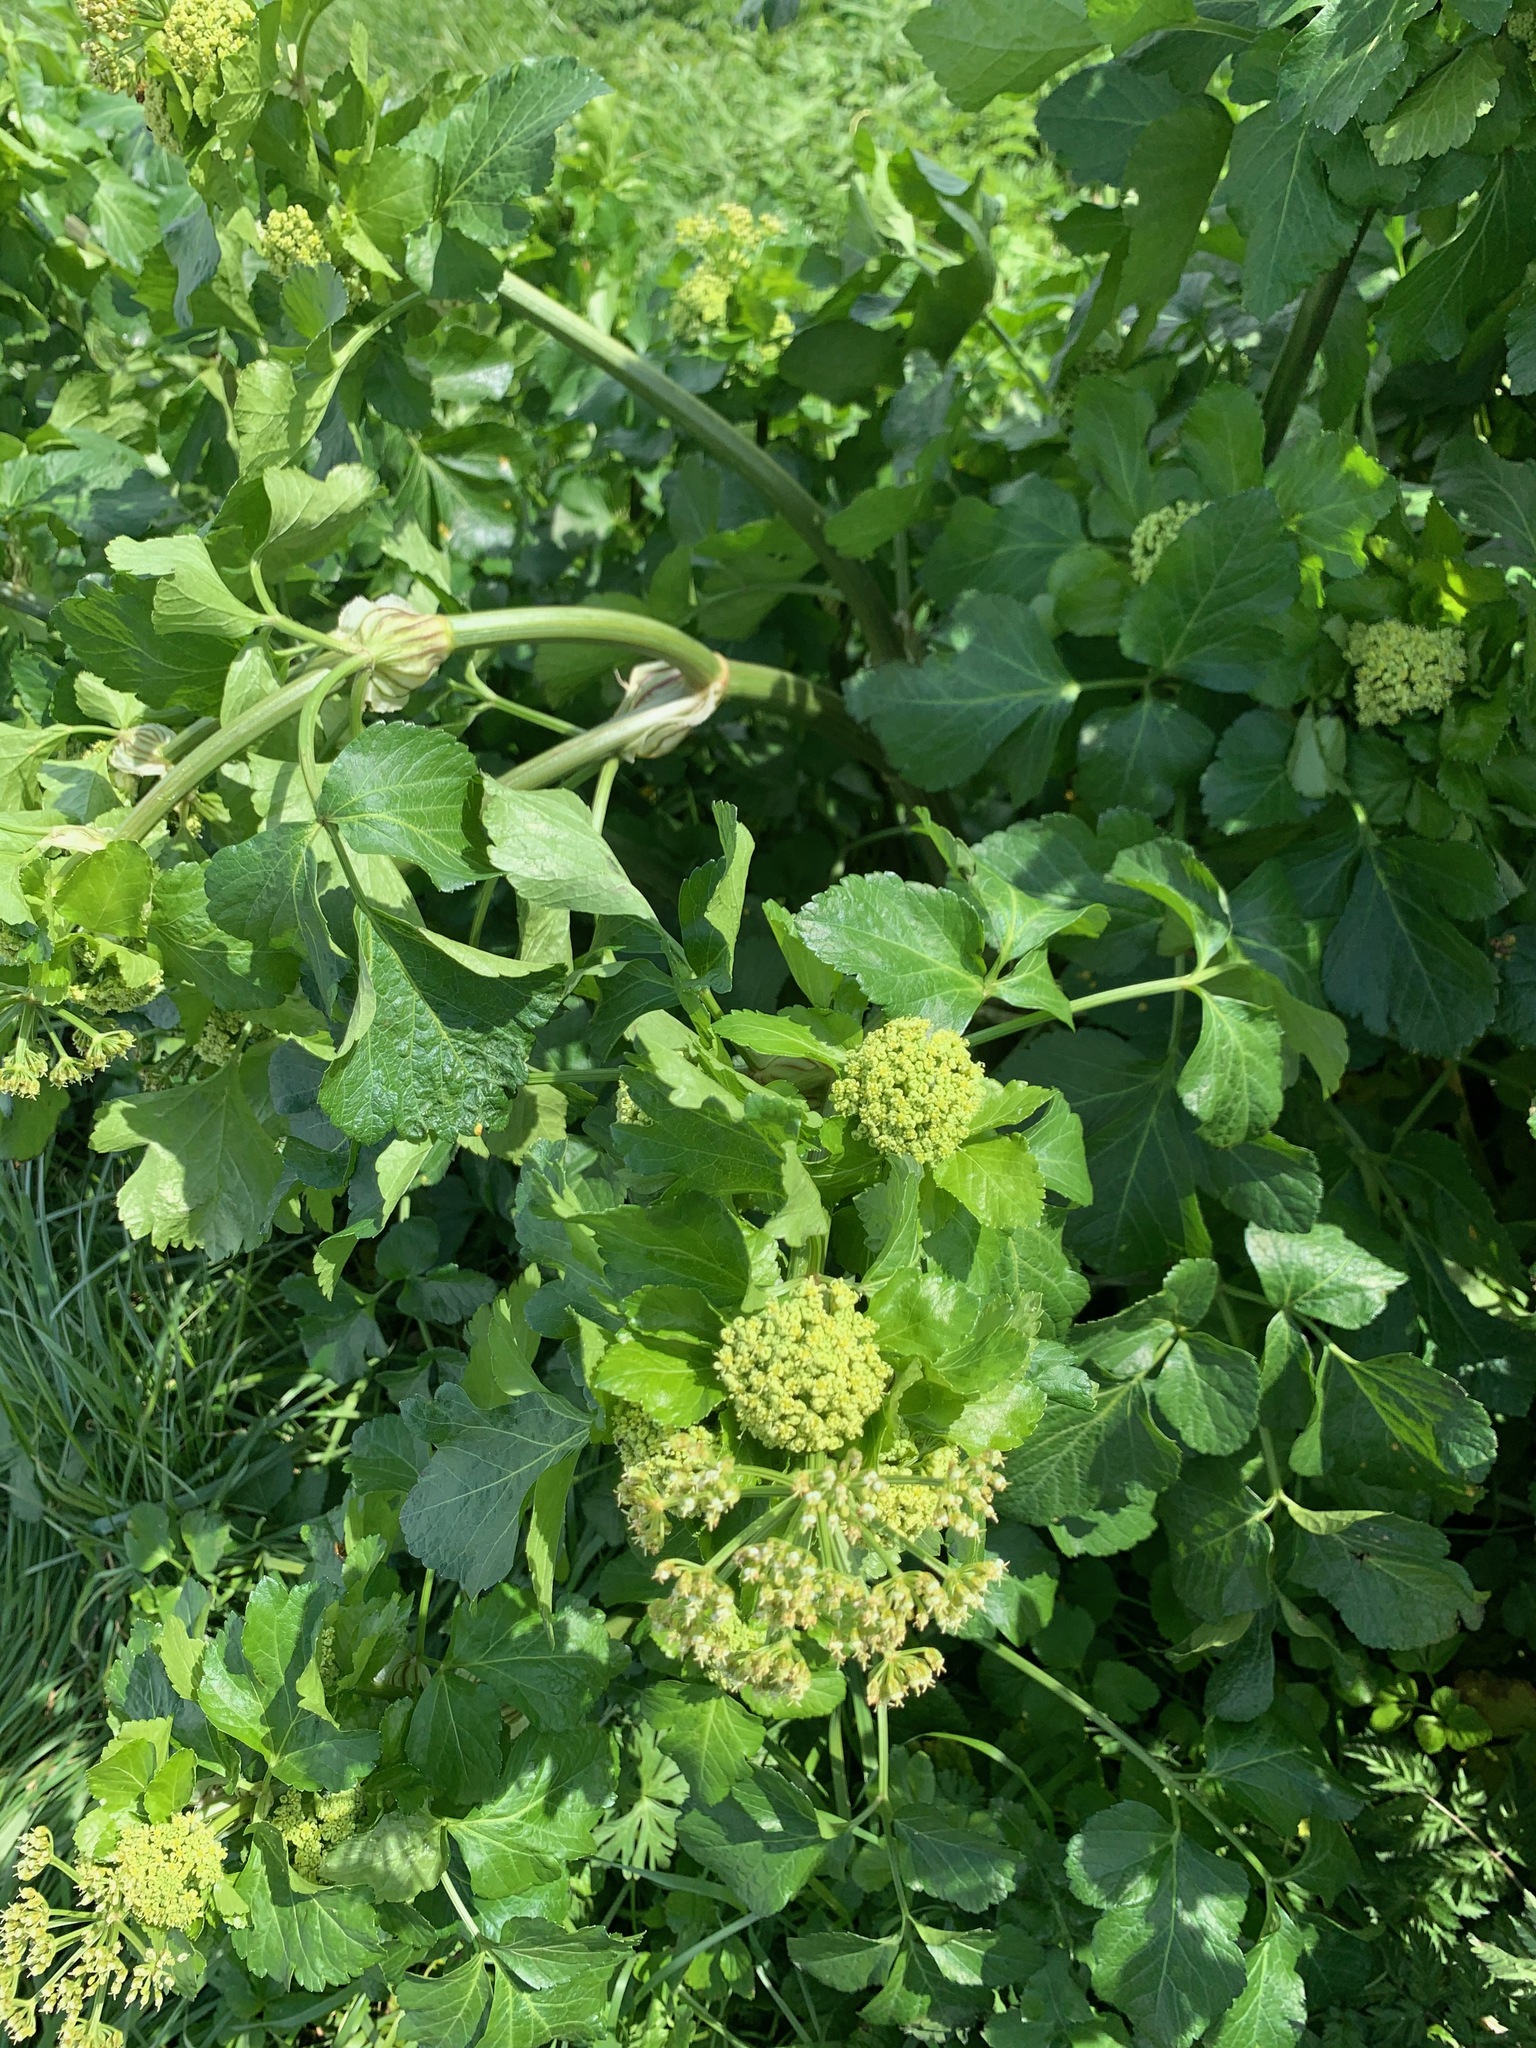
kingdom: Plantae
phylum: Tracheophyta
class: Magnoliopsida
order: Apiales
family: Apiaceae
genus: Smyrnium
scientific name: Smyrnium olusatrum
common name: Alexanders
